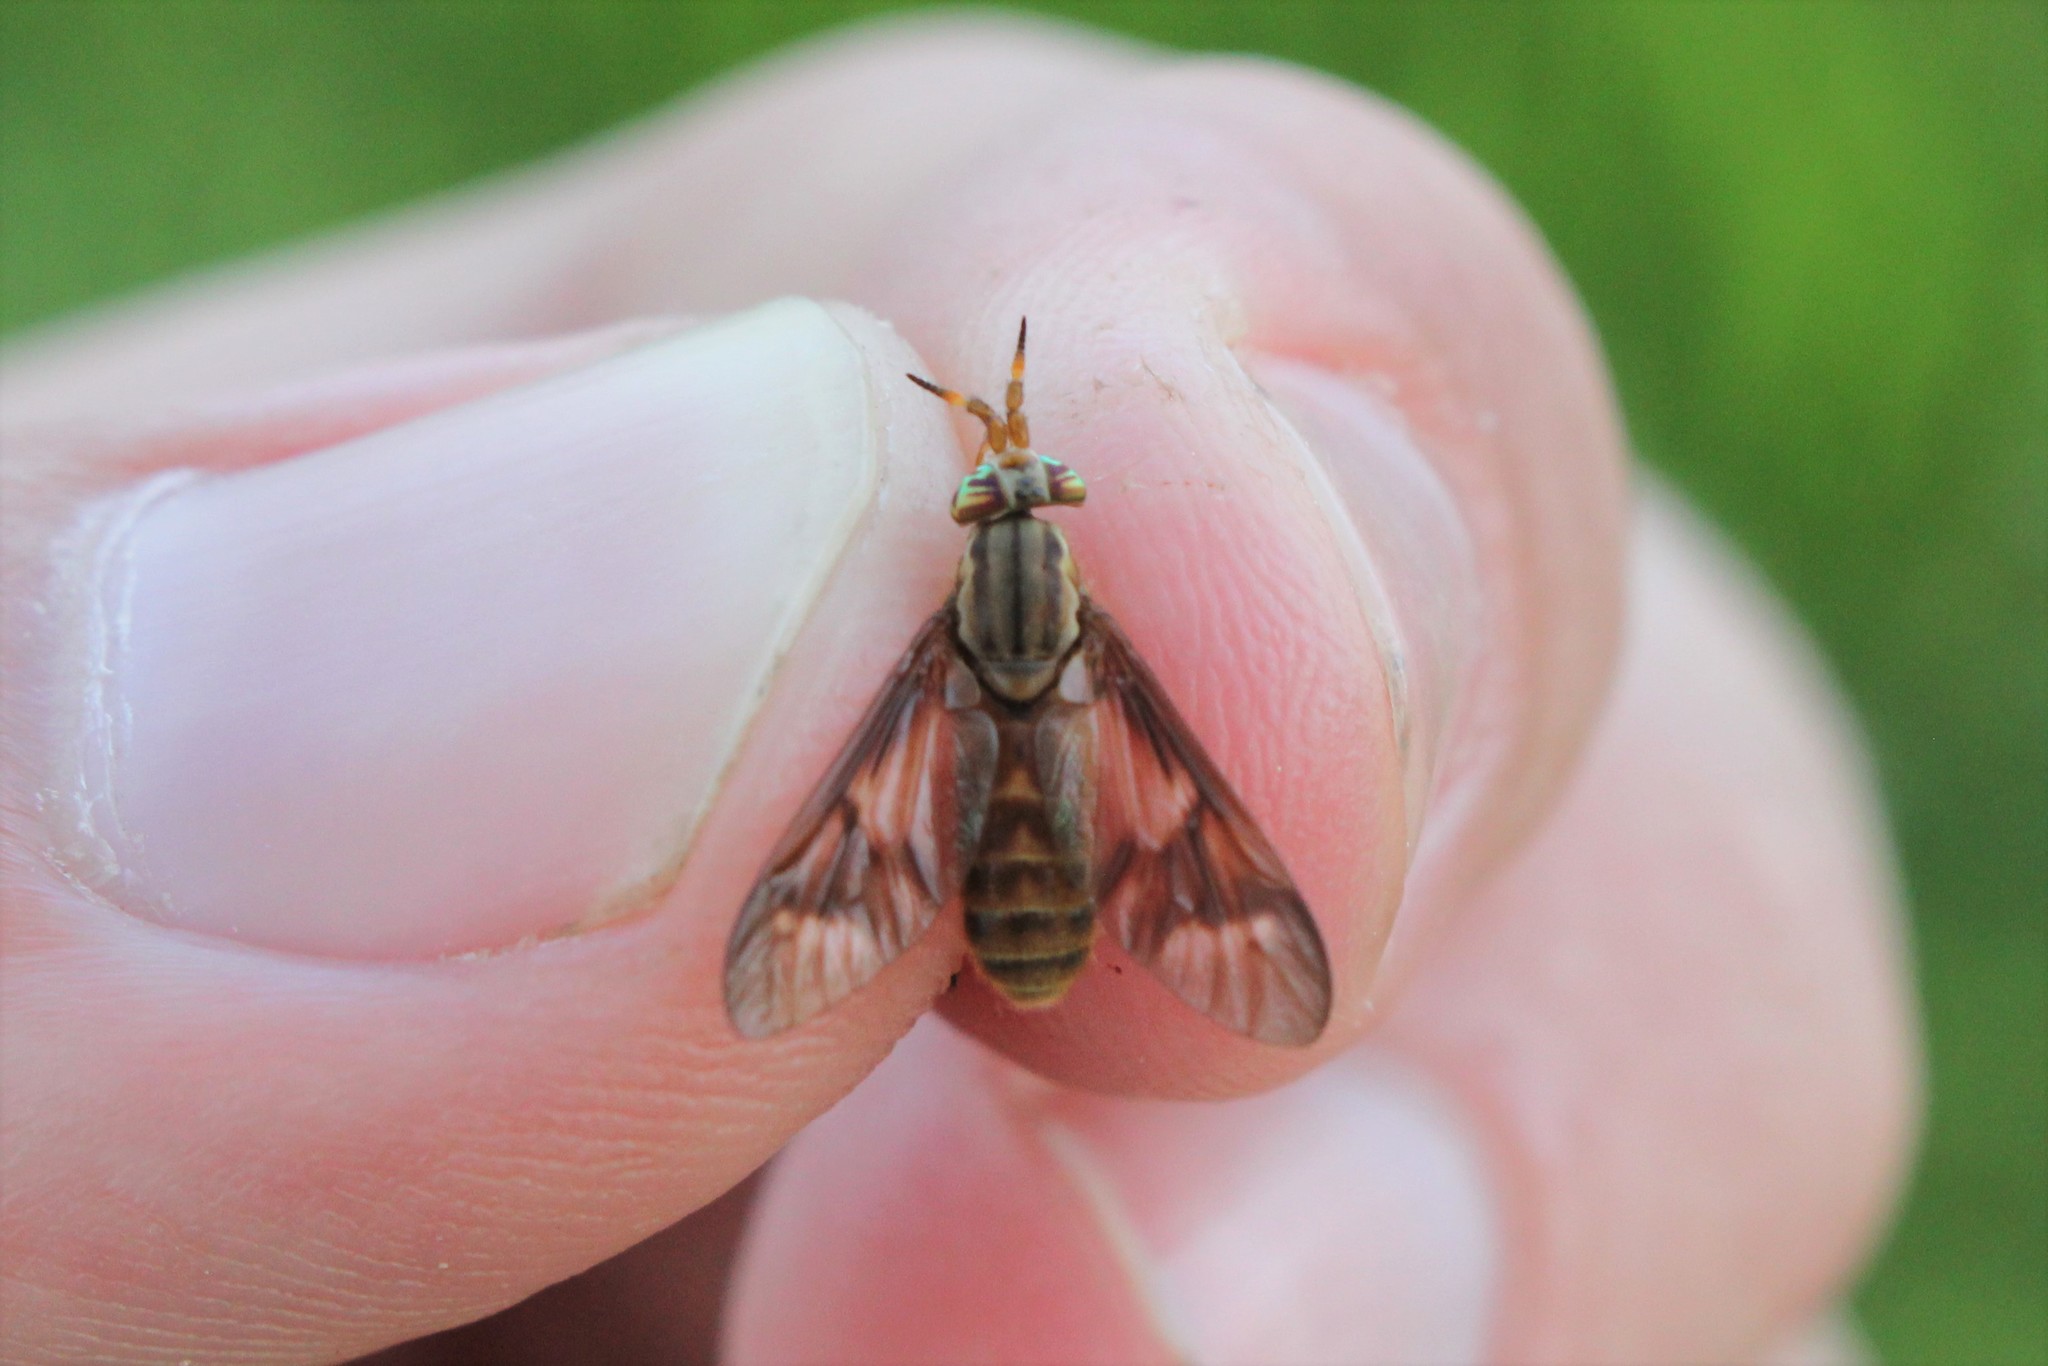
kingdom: Animalia
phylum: Arthropoda
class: Insecta
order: Diptera
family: Tabanidae
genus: Chrysops
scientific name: Chrysops brunneus
